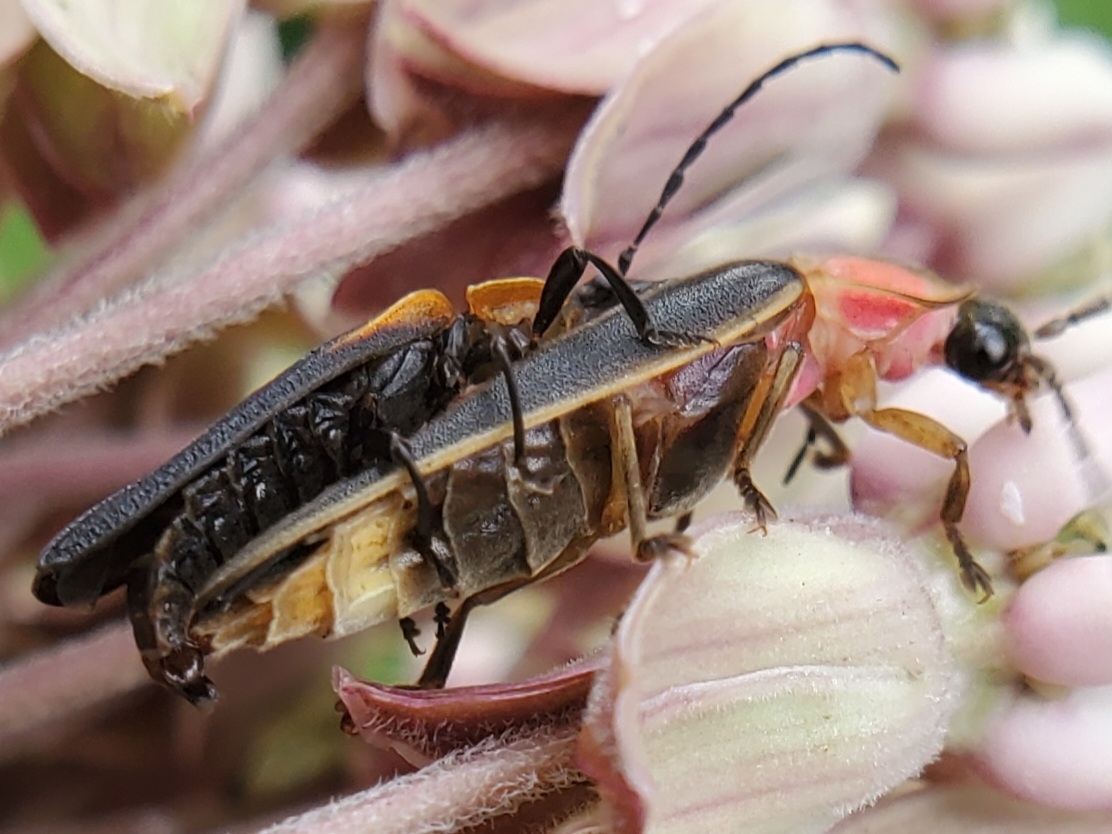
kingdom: Animalia
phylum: Arthropoda
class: Insecta
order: Coleoptera
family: Lycidae
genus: Lyconotus
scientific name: Lyconotus lateralis
